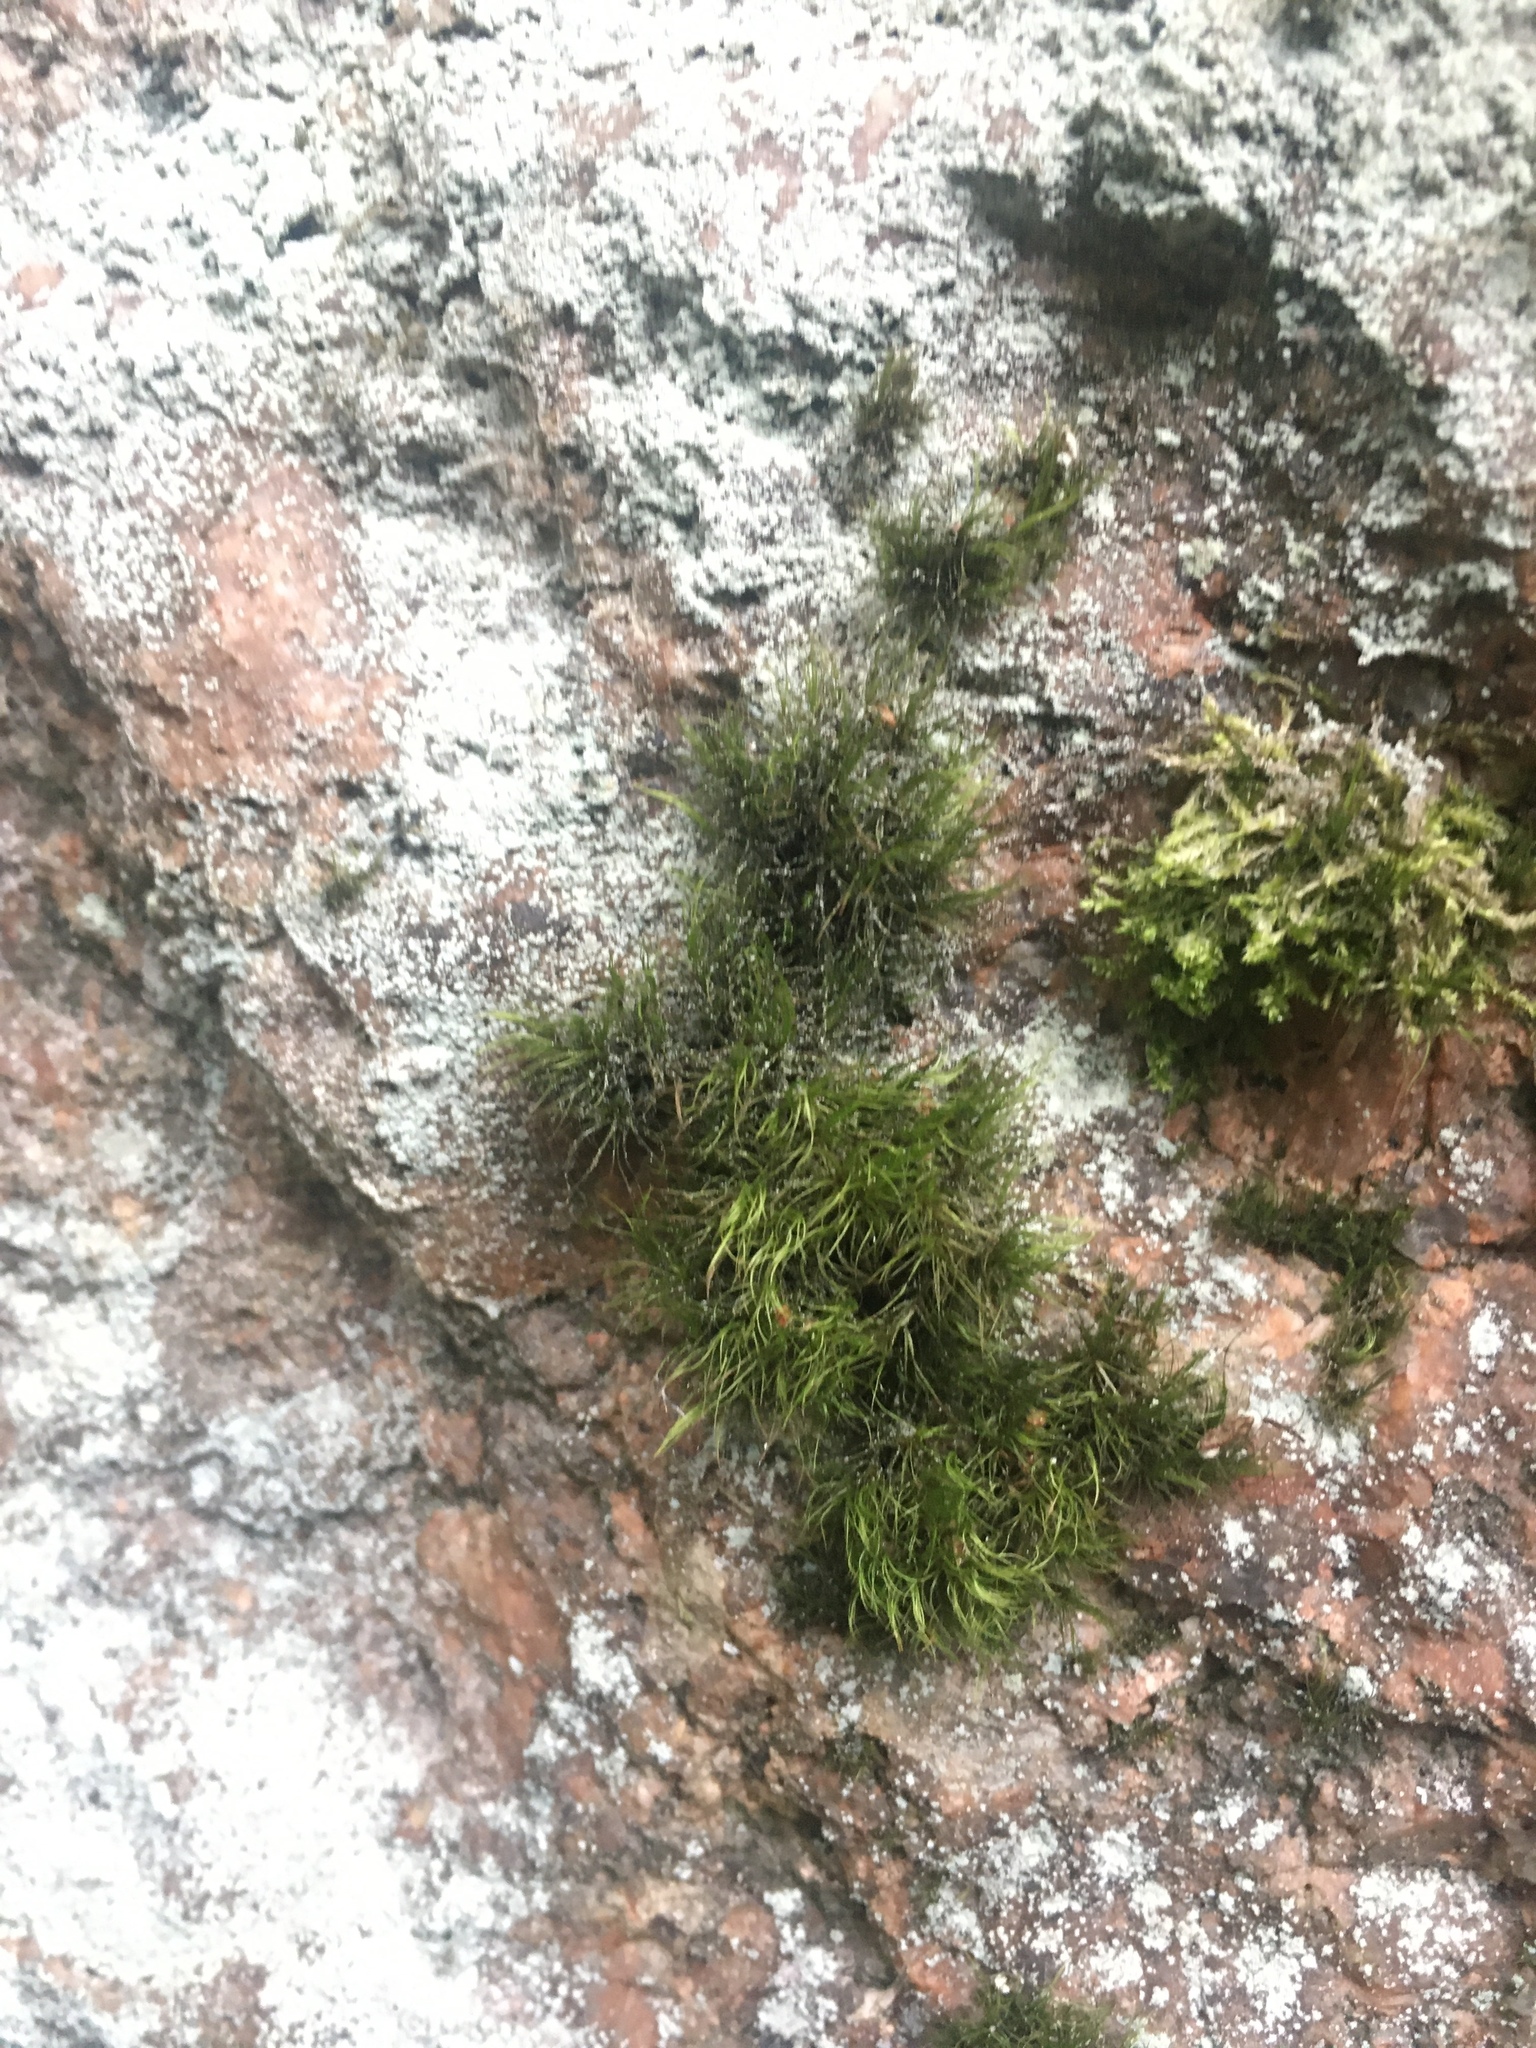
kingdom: Plantae
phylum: Bryophyta
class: Bryopsida
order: Dicranales
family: Dicranaceae
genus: Paraleucobryum
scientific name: Paraleucobryum longifolium
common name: Long-leaved fork moss
